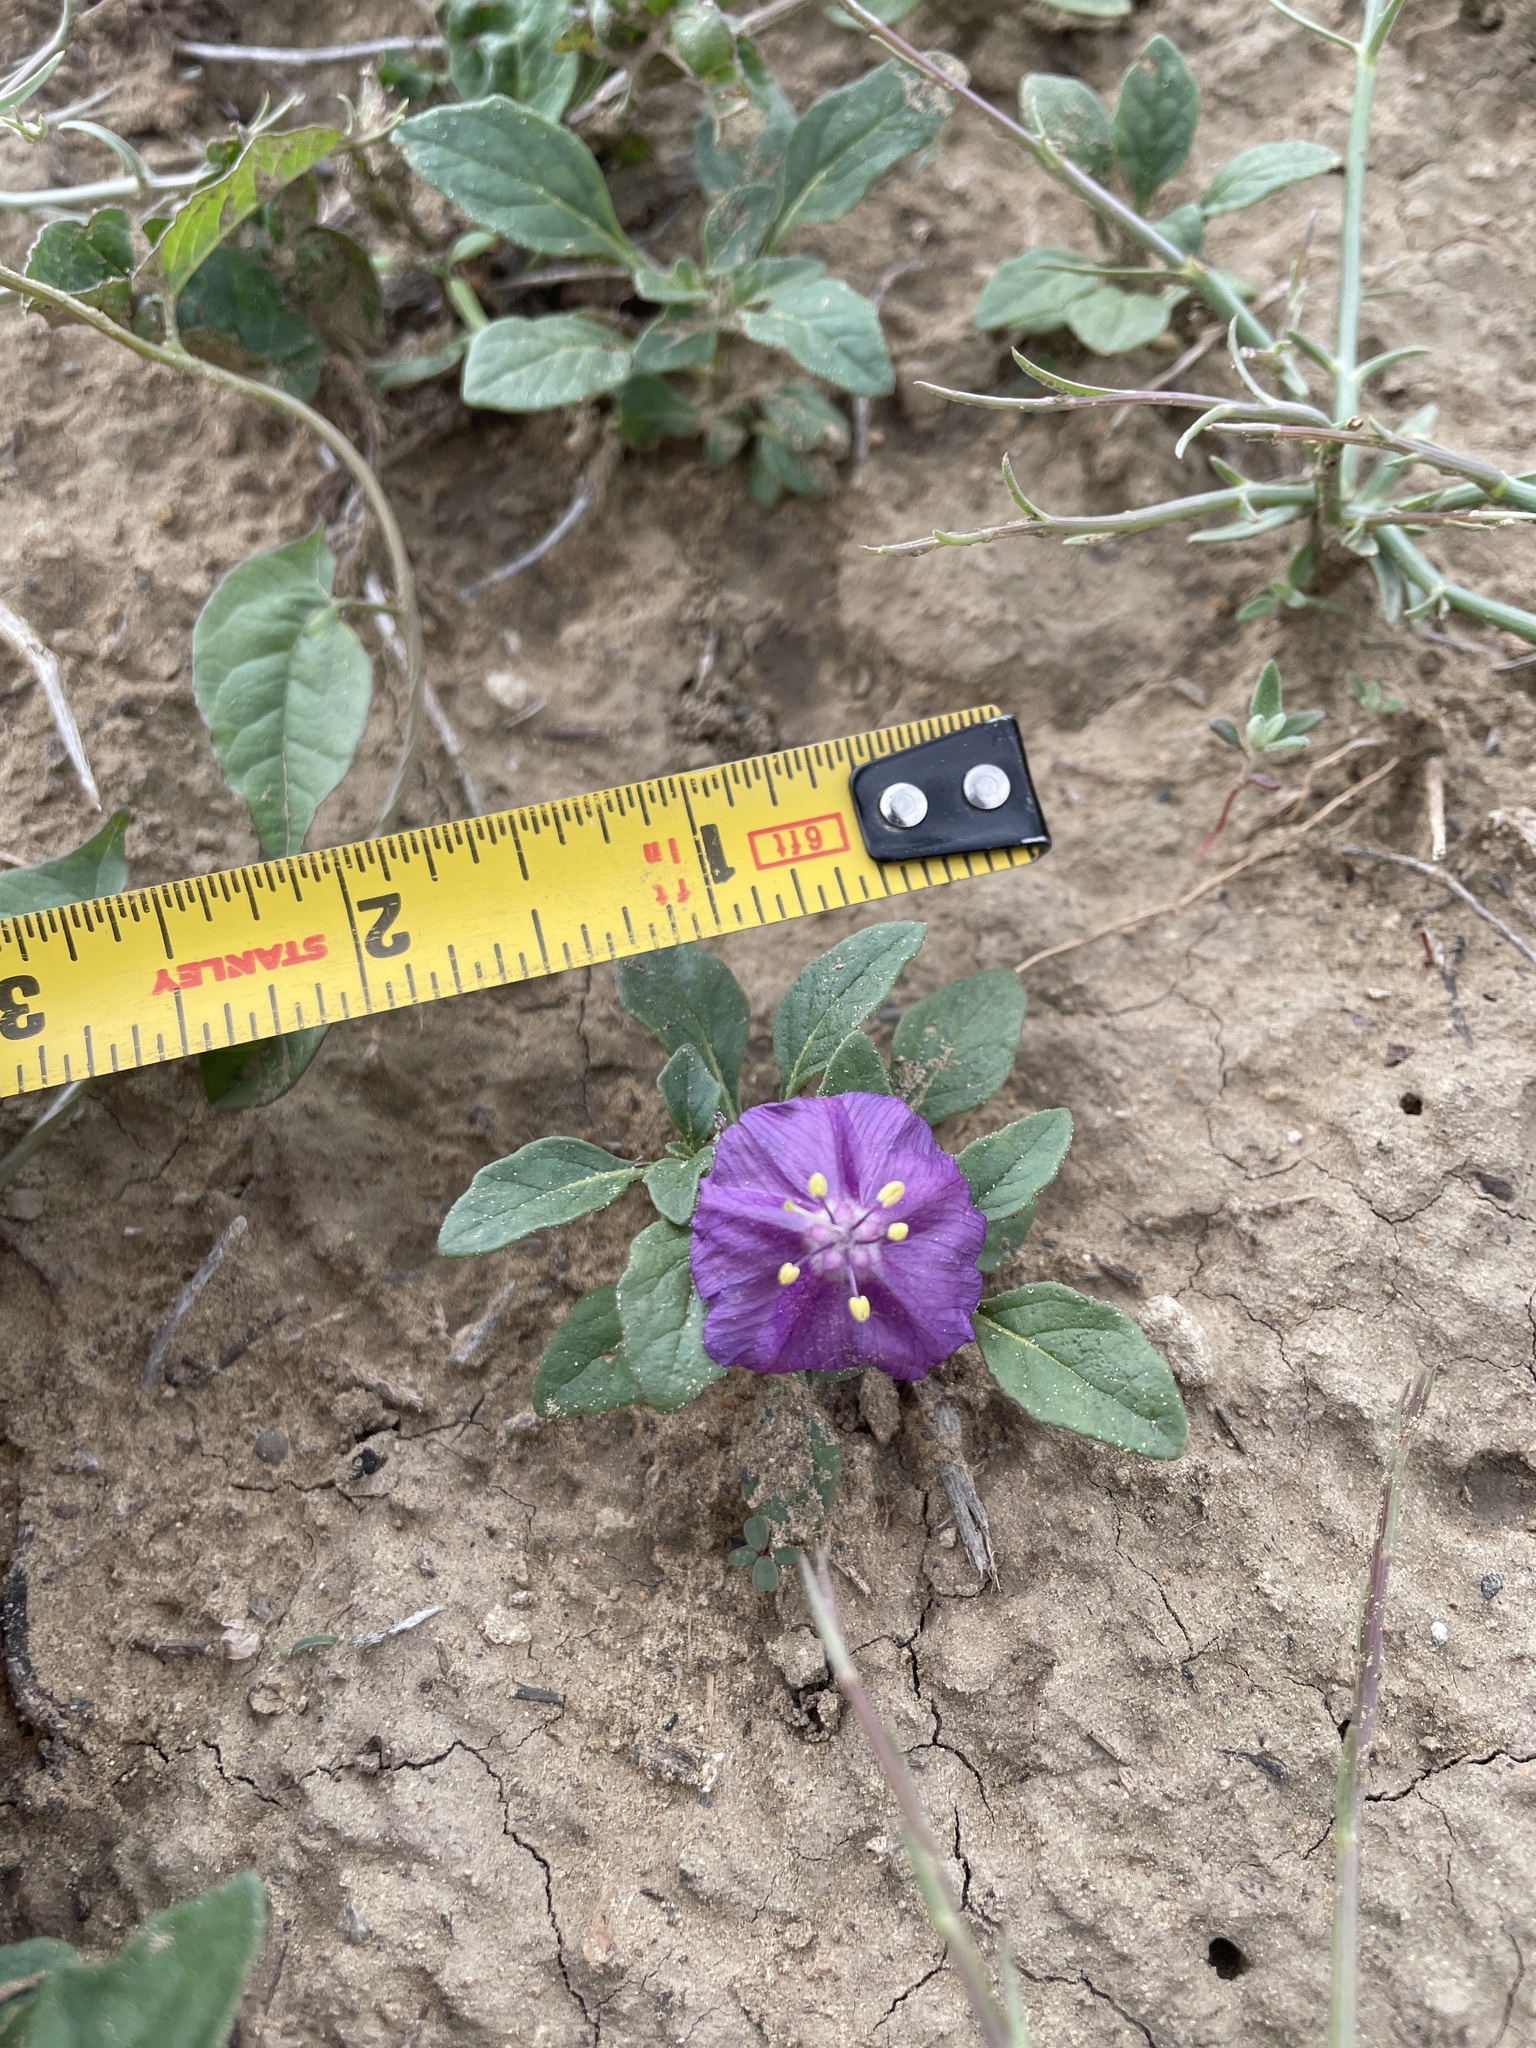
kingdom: Plantae
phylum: Tracheophyta
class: Magnoliopsida
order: Solanales
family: Solanaceae
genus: Quincula
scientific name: Quincula lobata
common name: Purple-ground-cherry
